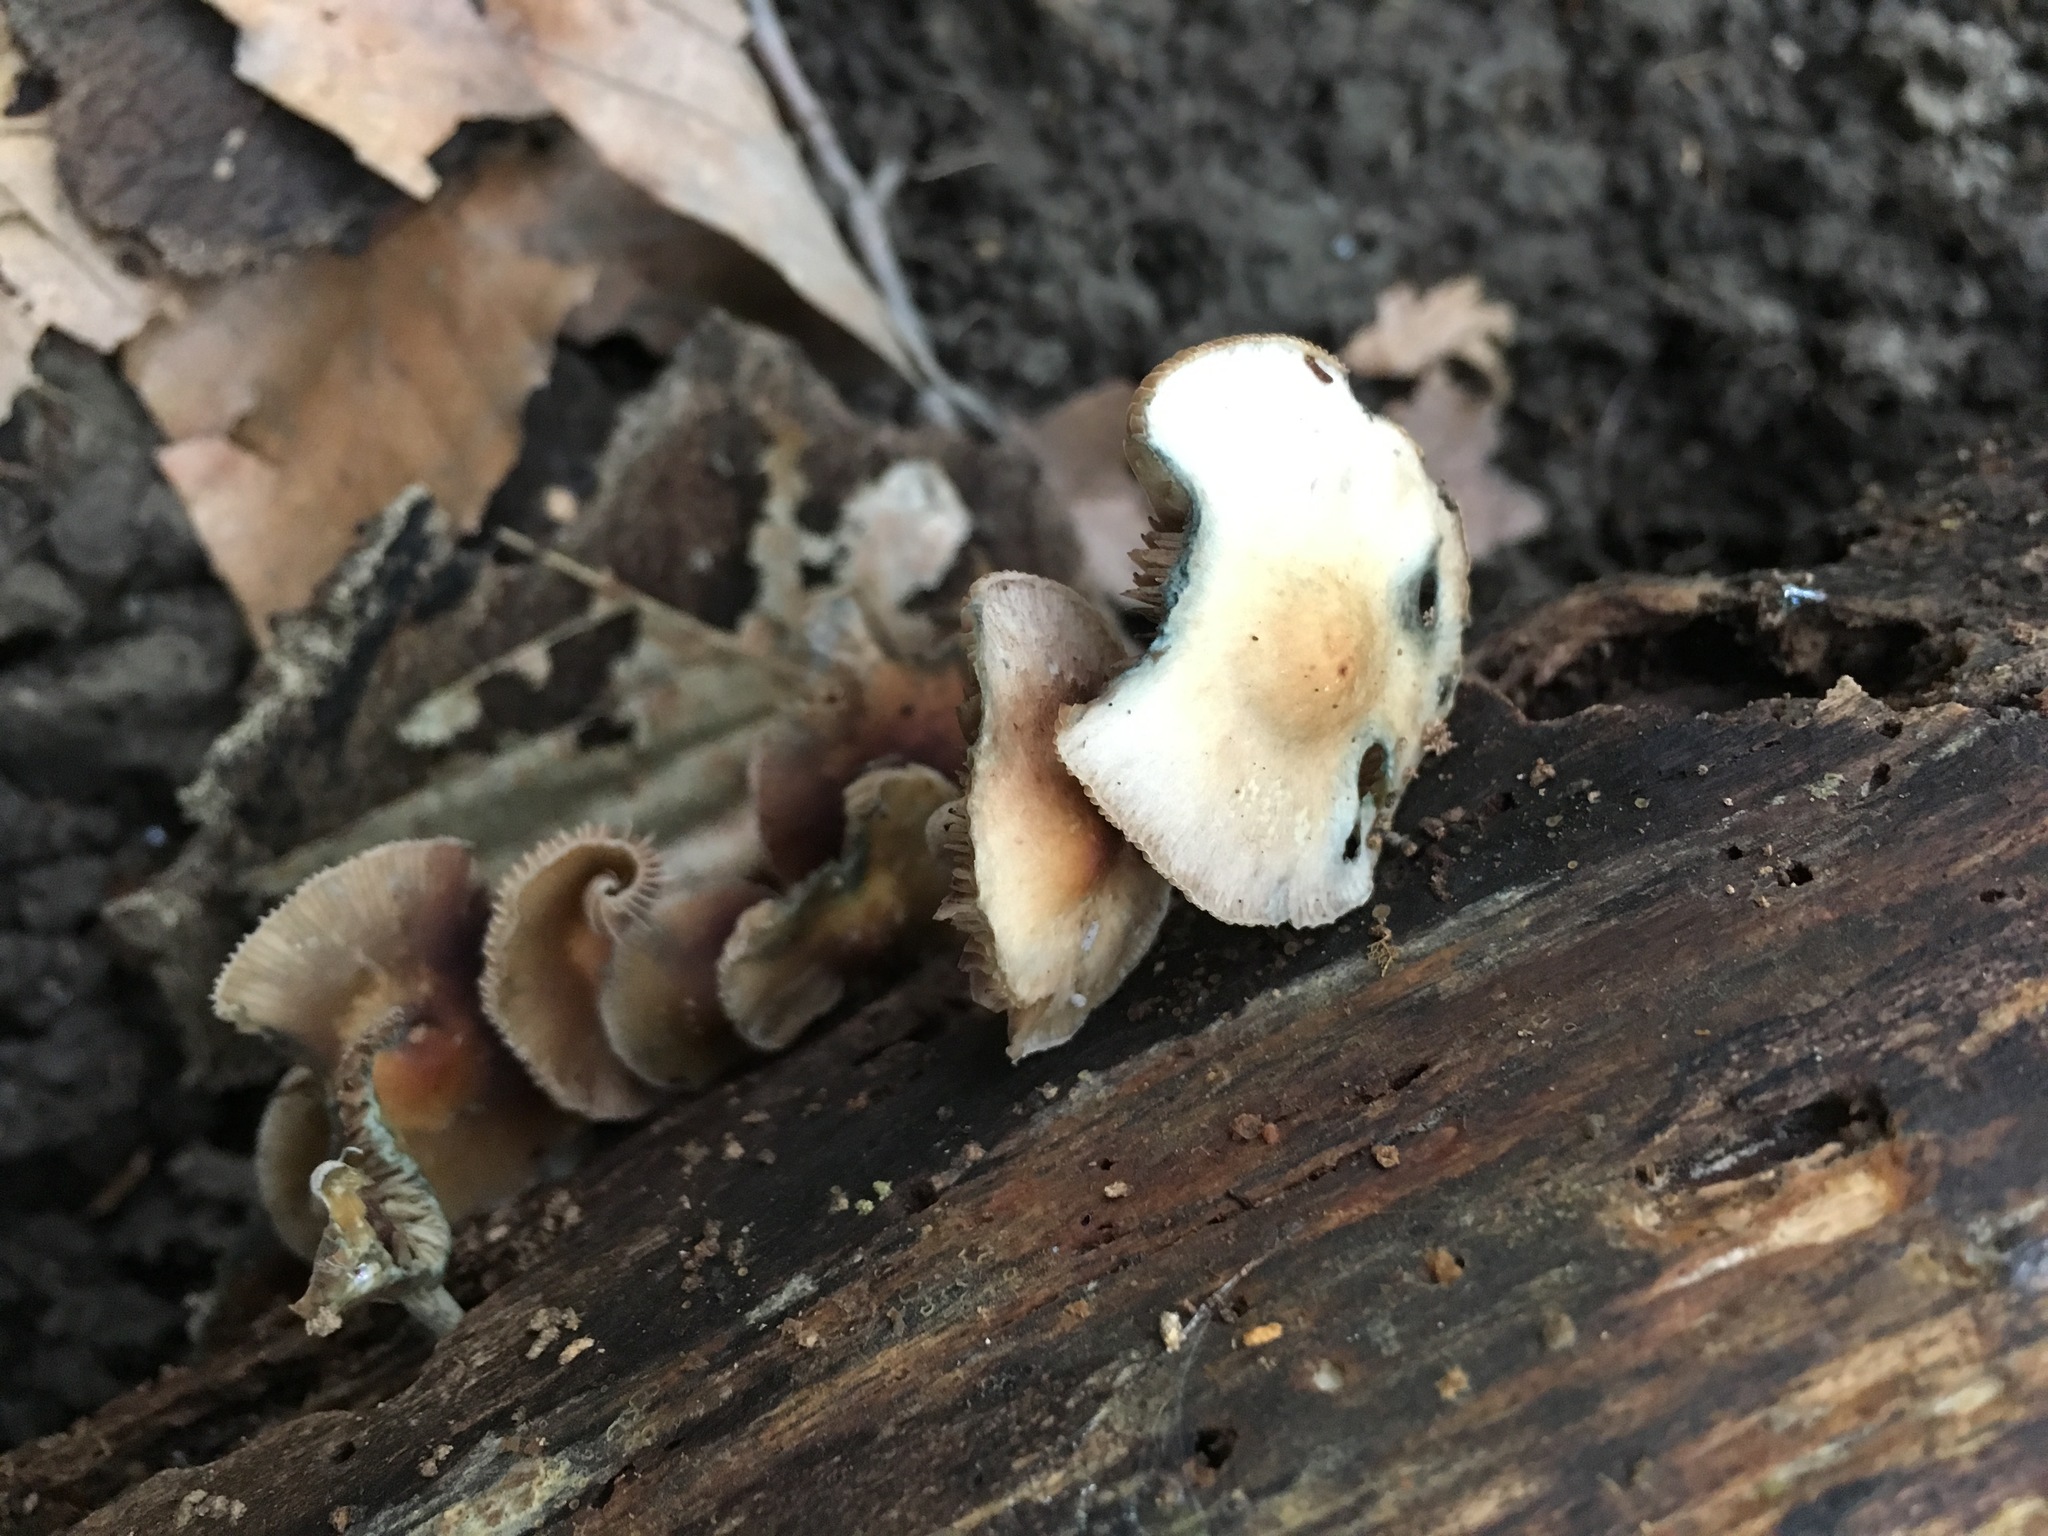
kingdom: Fungi
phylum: Basidiomycota
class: Agaricomycetes
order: Agaricales
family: Hymenogastraceae
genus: Psilocybe
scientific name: Psilocybe caerulipes
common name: Blue-foot
